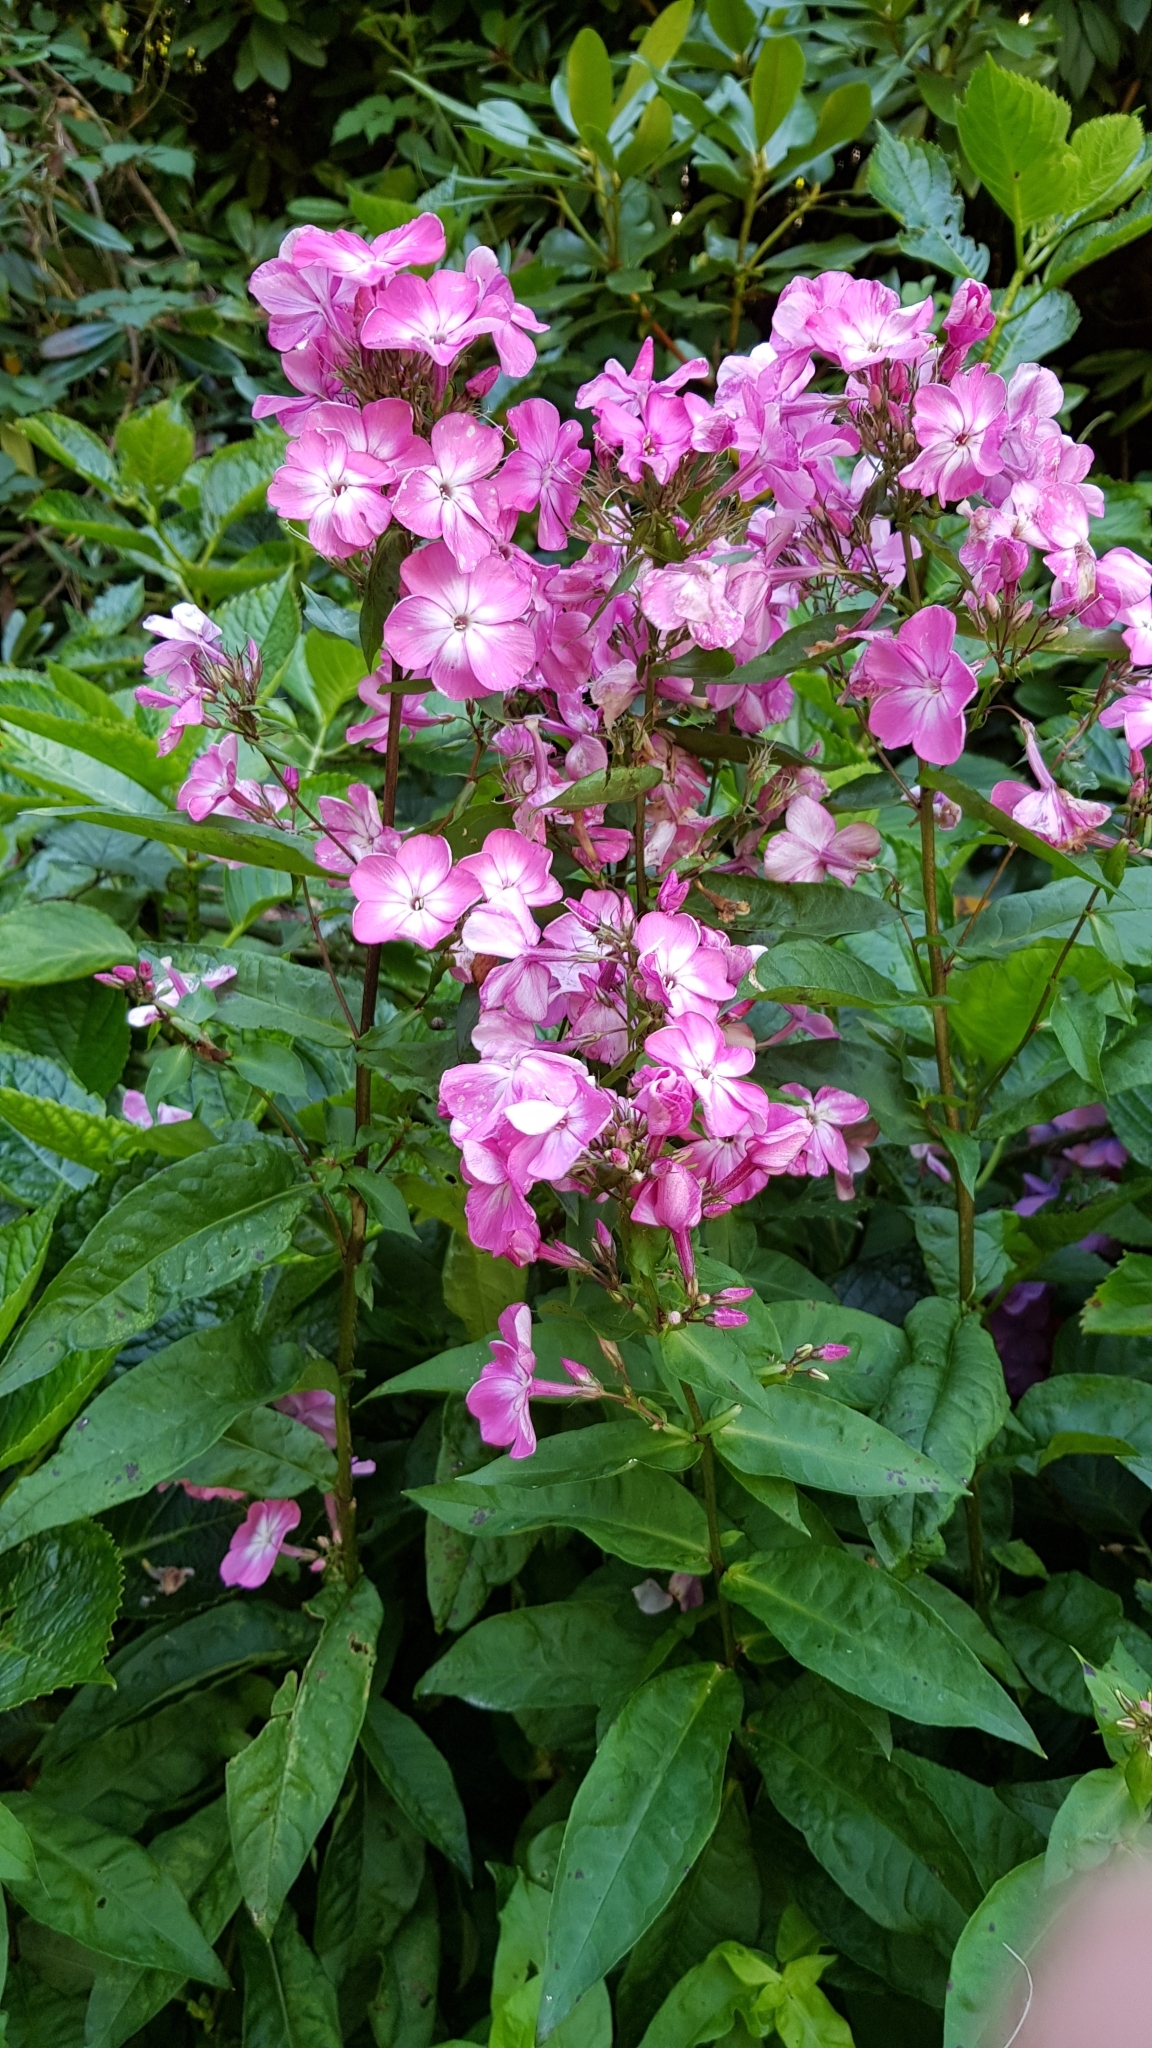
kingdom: Plantae
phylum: Tracheophyta
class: Magnoliopsida
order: Ericales
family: Polemoniaceae
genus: Phlox
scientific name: Phlox paniculata
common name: Fall phlox
